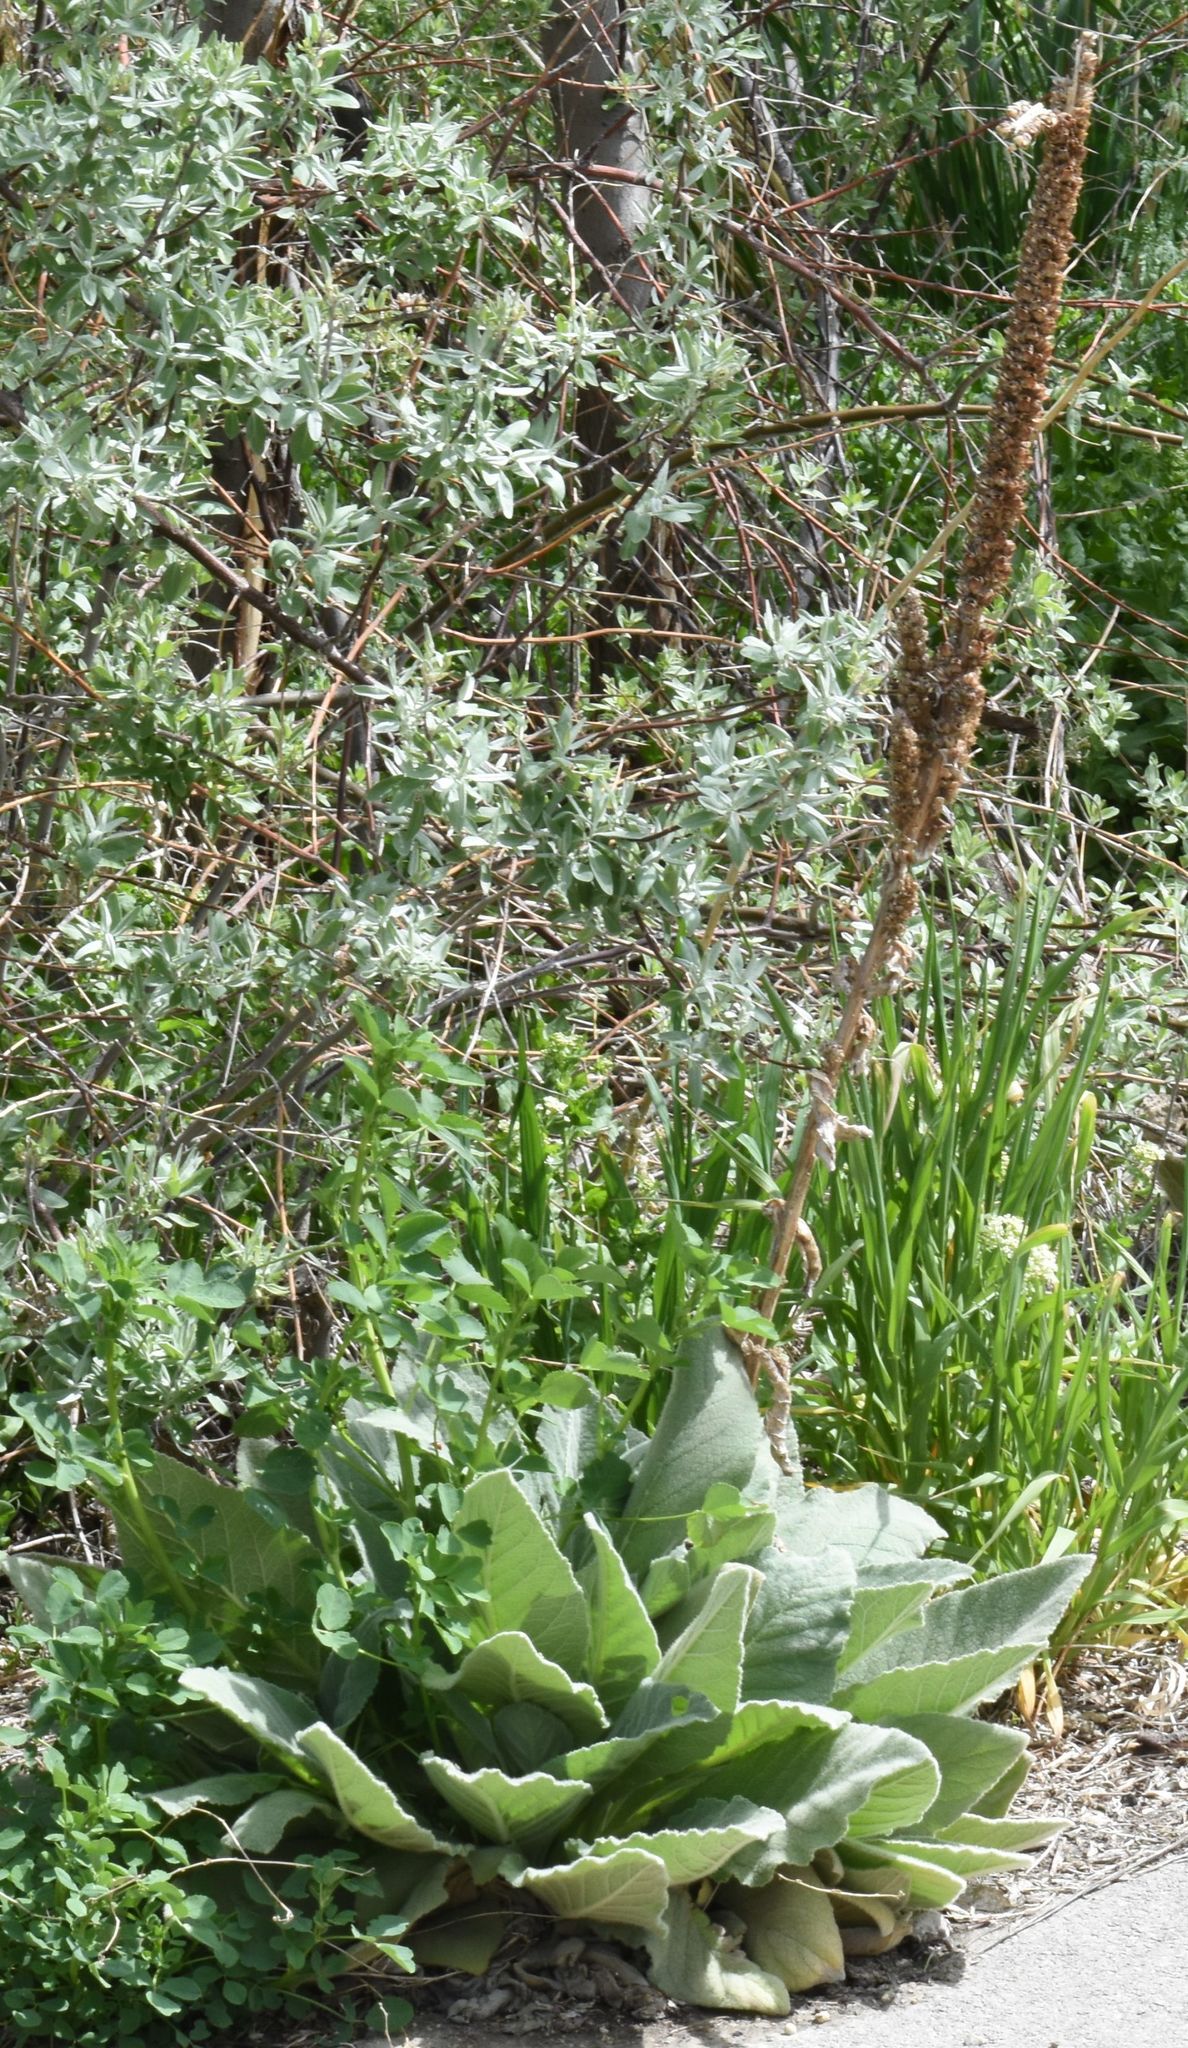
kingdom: Plantae
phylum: Tracheophyta
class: Magnoliopsida
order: Lamiales
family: Scrophulariaceae
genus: Verbascum
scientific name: Verbascum thapsus
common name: Common mullein
